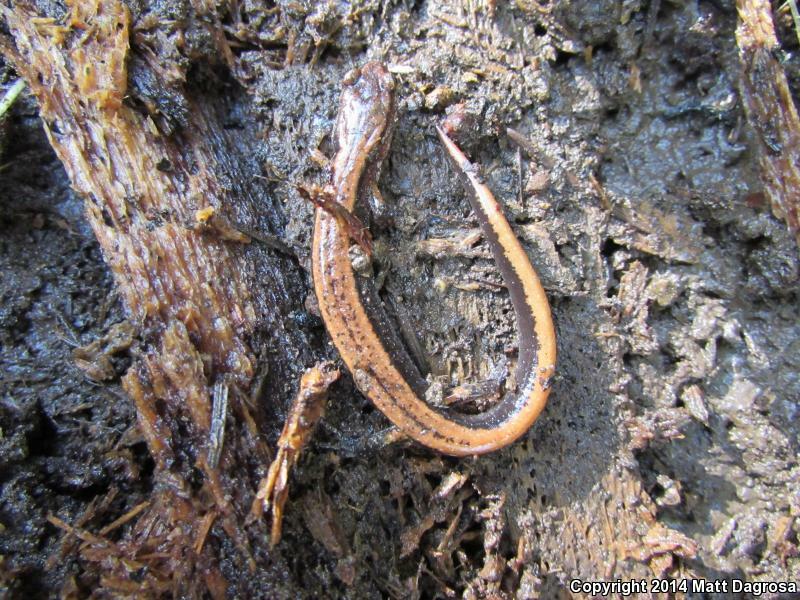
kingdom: Animalia
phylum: Chordata
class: Amphibia
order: Caudata
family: Plethodontidae
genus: Plethodon
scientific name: Plethodon vehiculum
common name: Western red-backed salamander
